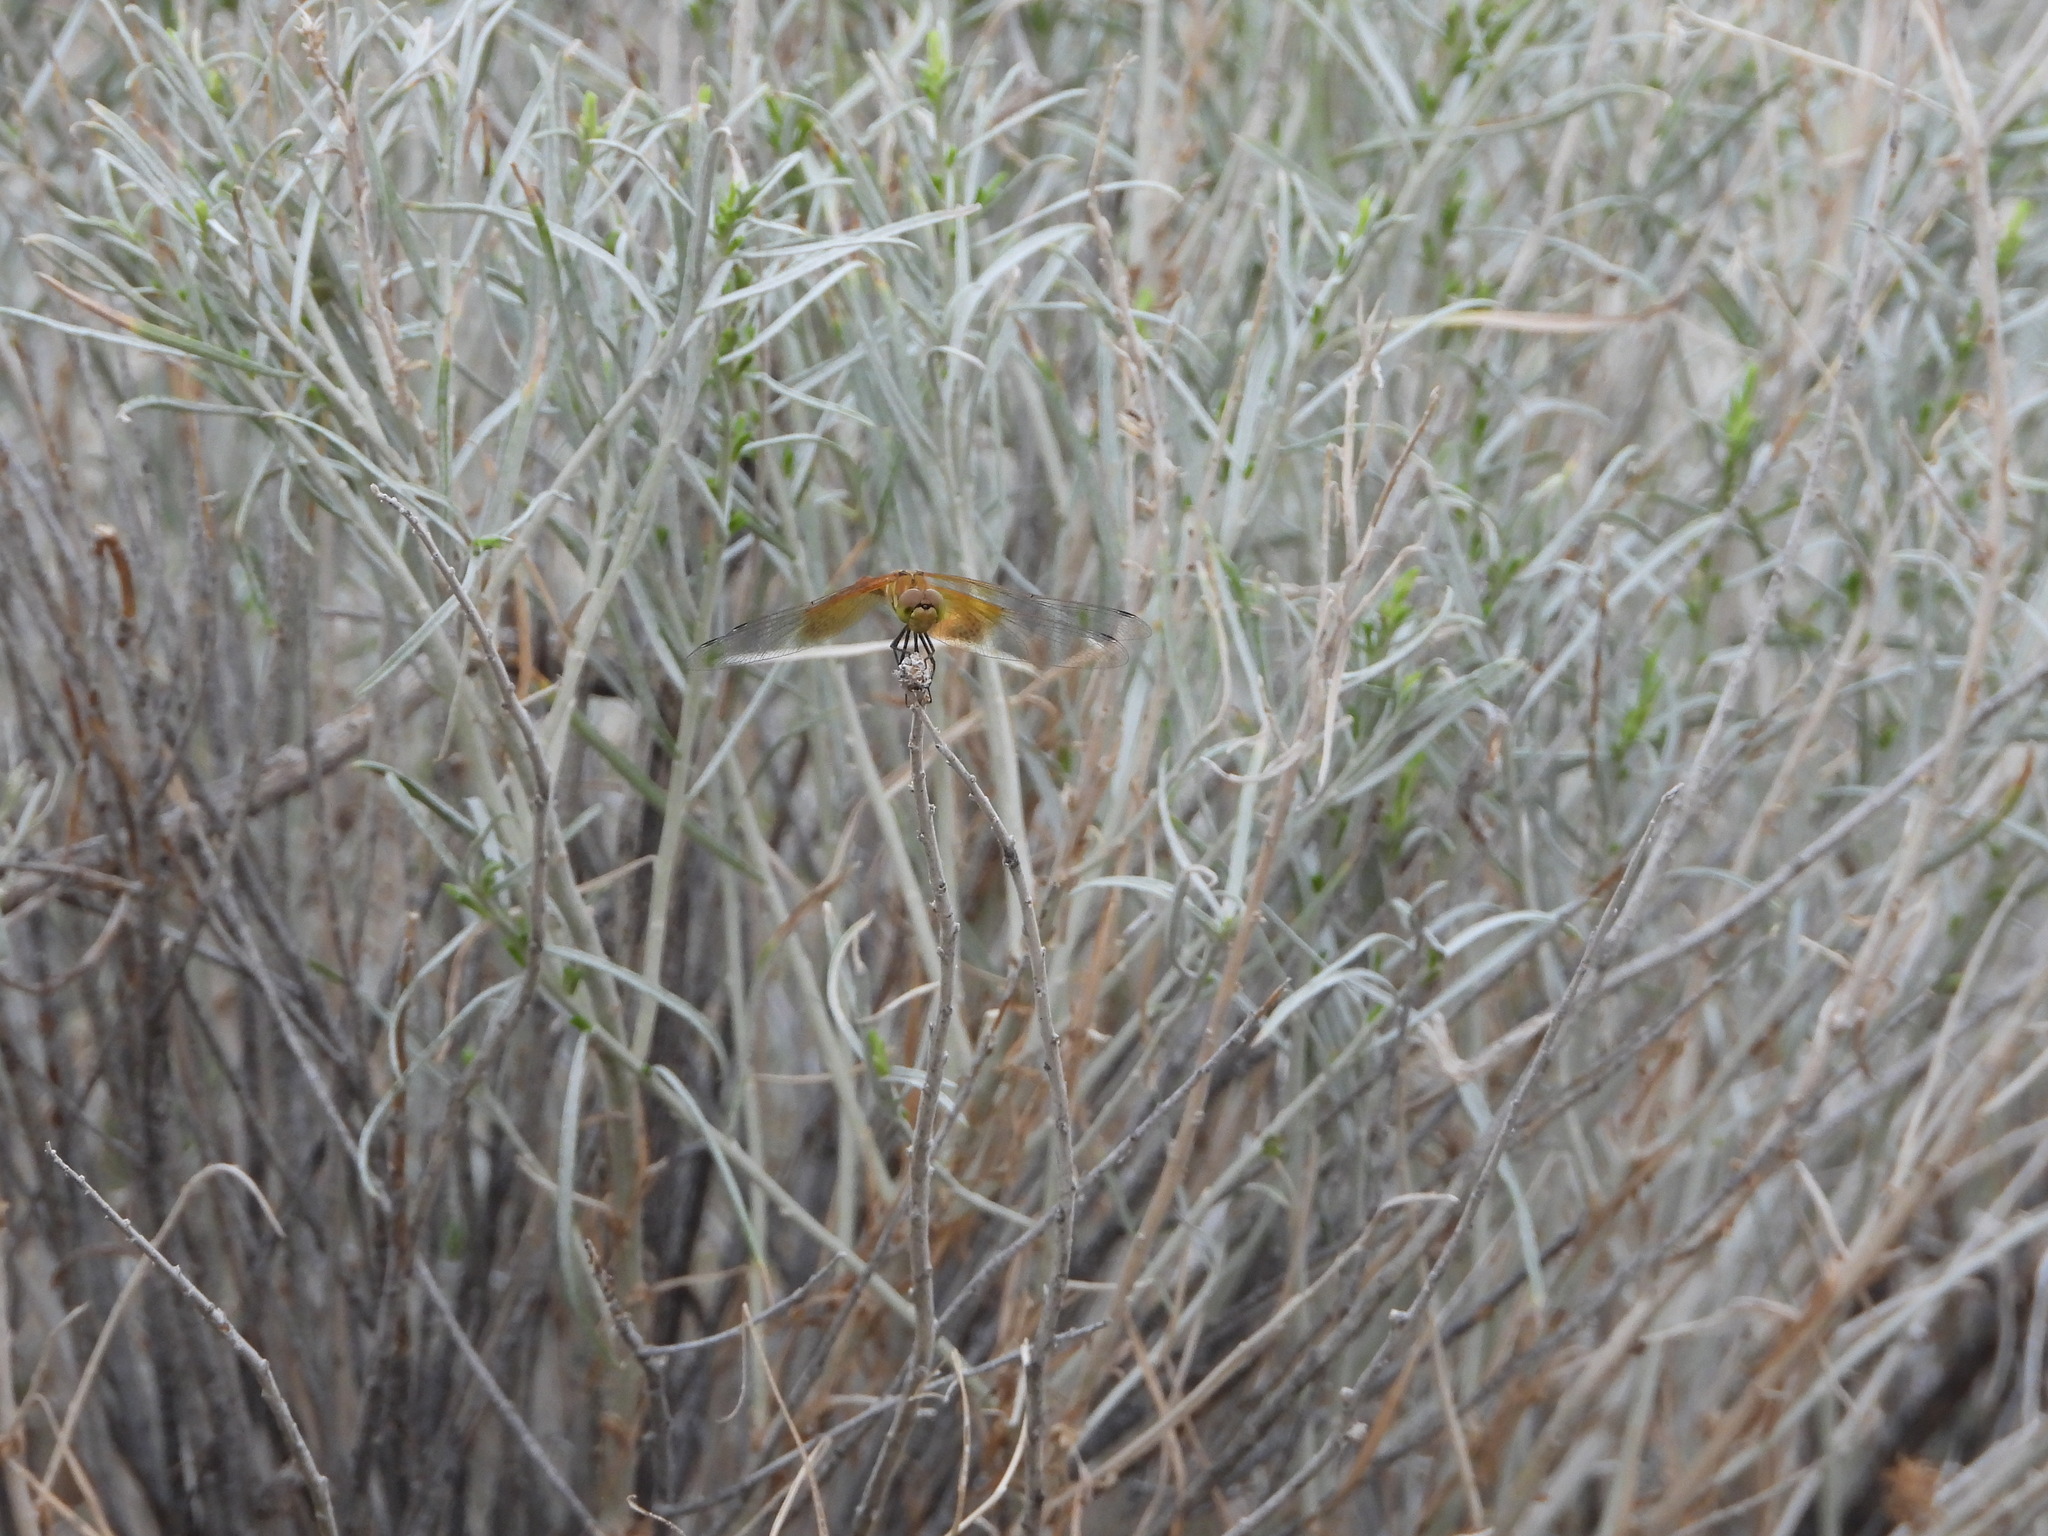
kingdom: Animalia
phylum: Arthropoda
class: Insecta
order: Odonata
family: Libellulidae
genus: Sympetrum
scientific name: Sympetrum semicinctum
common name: Band-winged meadowhawk
